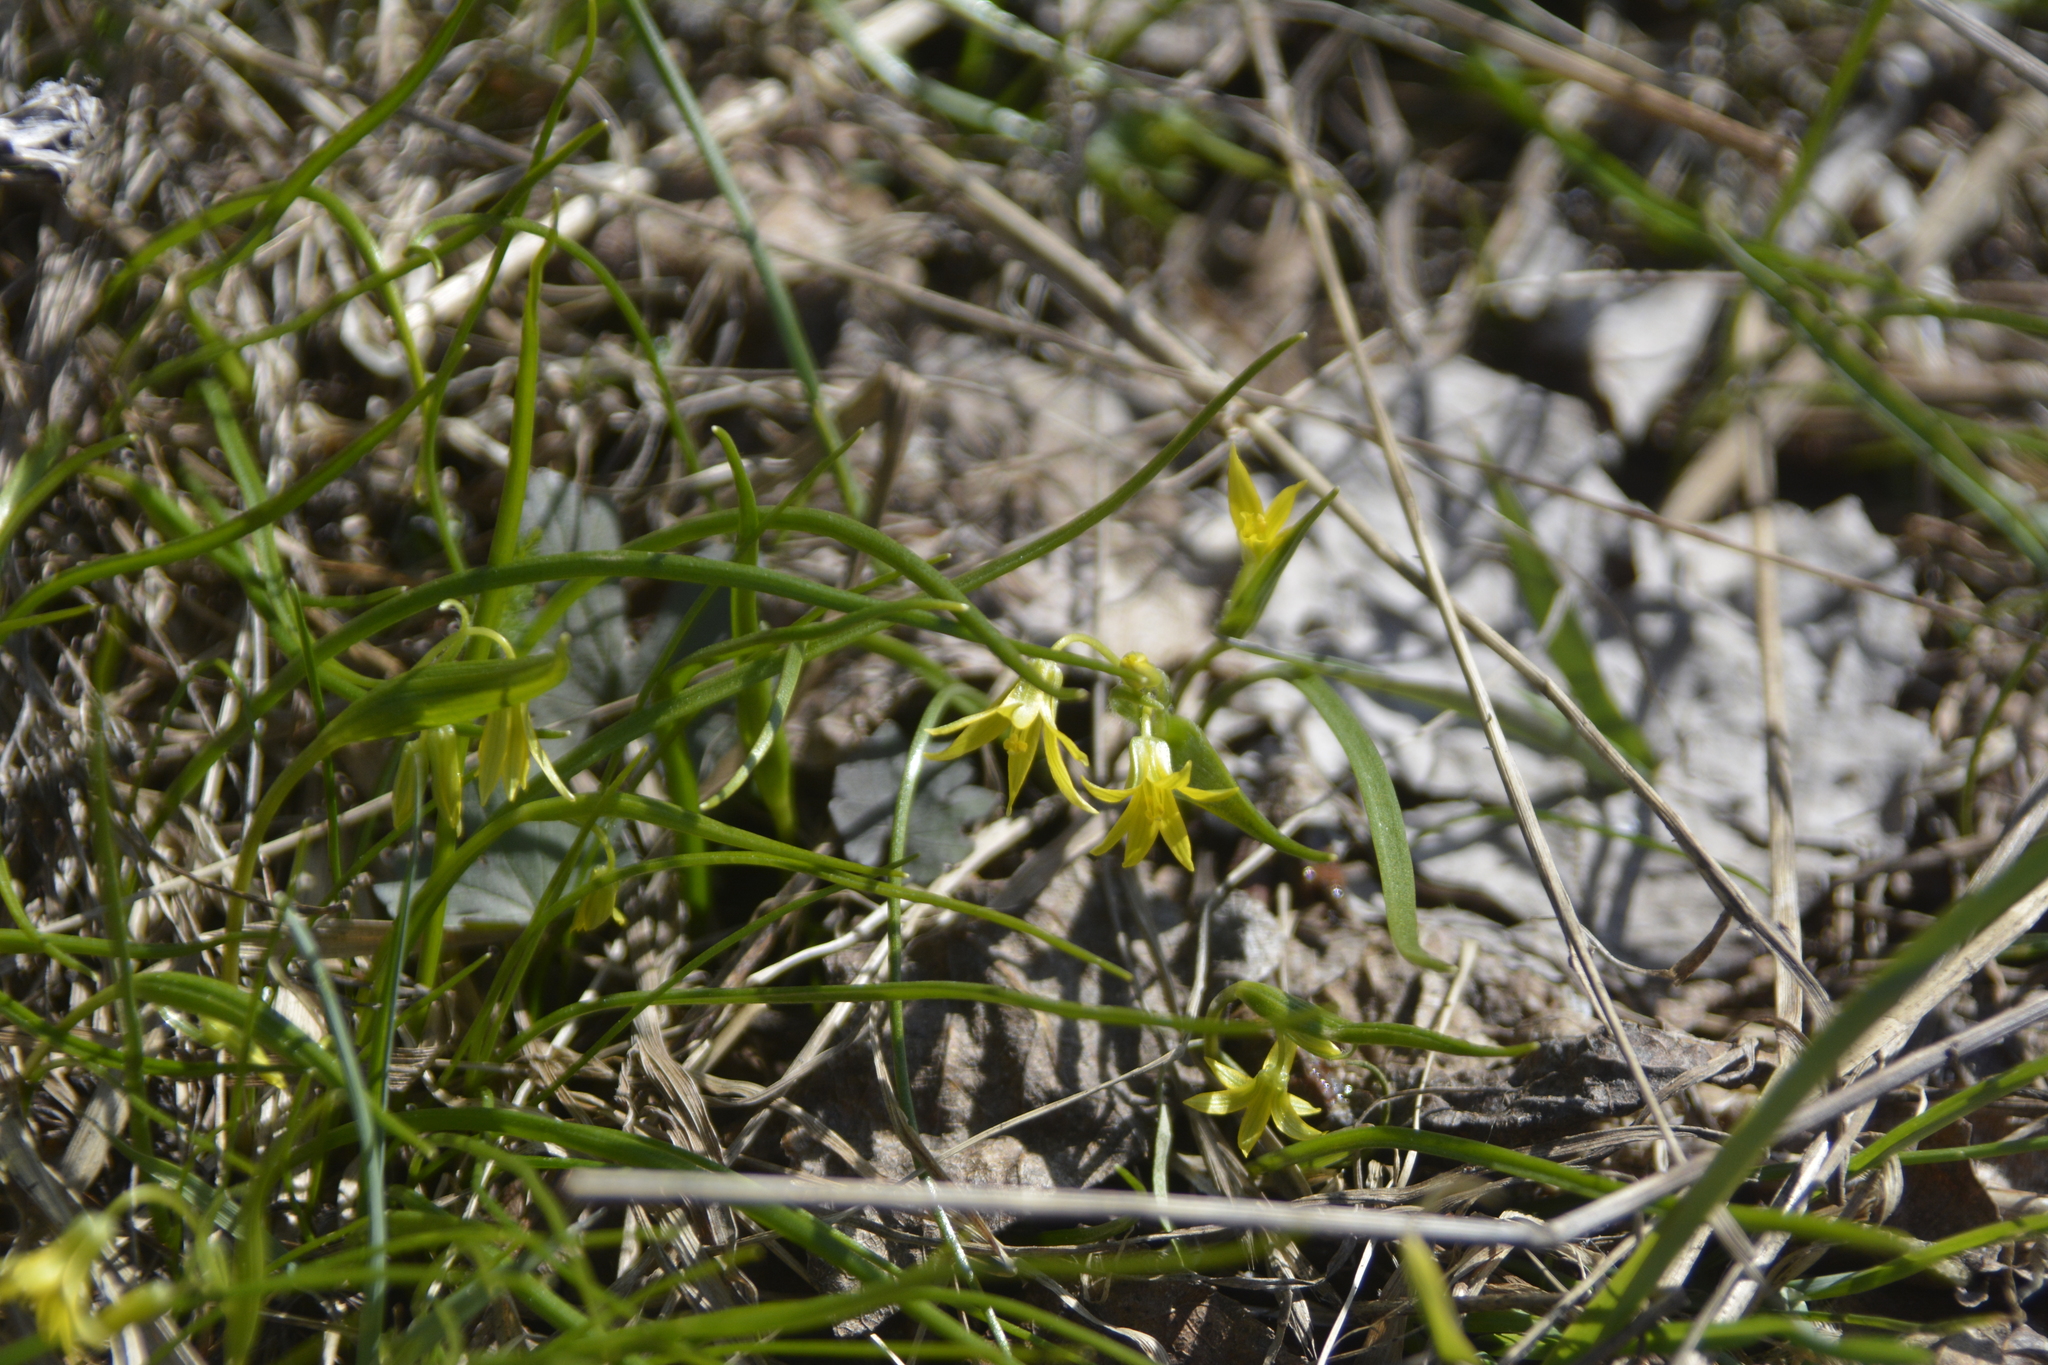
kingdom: Plantae
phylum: Tracheophyta
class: Liliopsida
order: Liliales
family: Liliaceae
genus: Gagea
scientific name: Gagea minima
